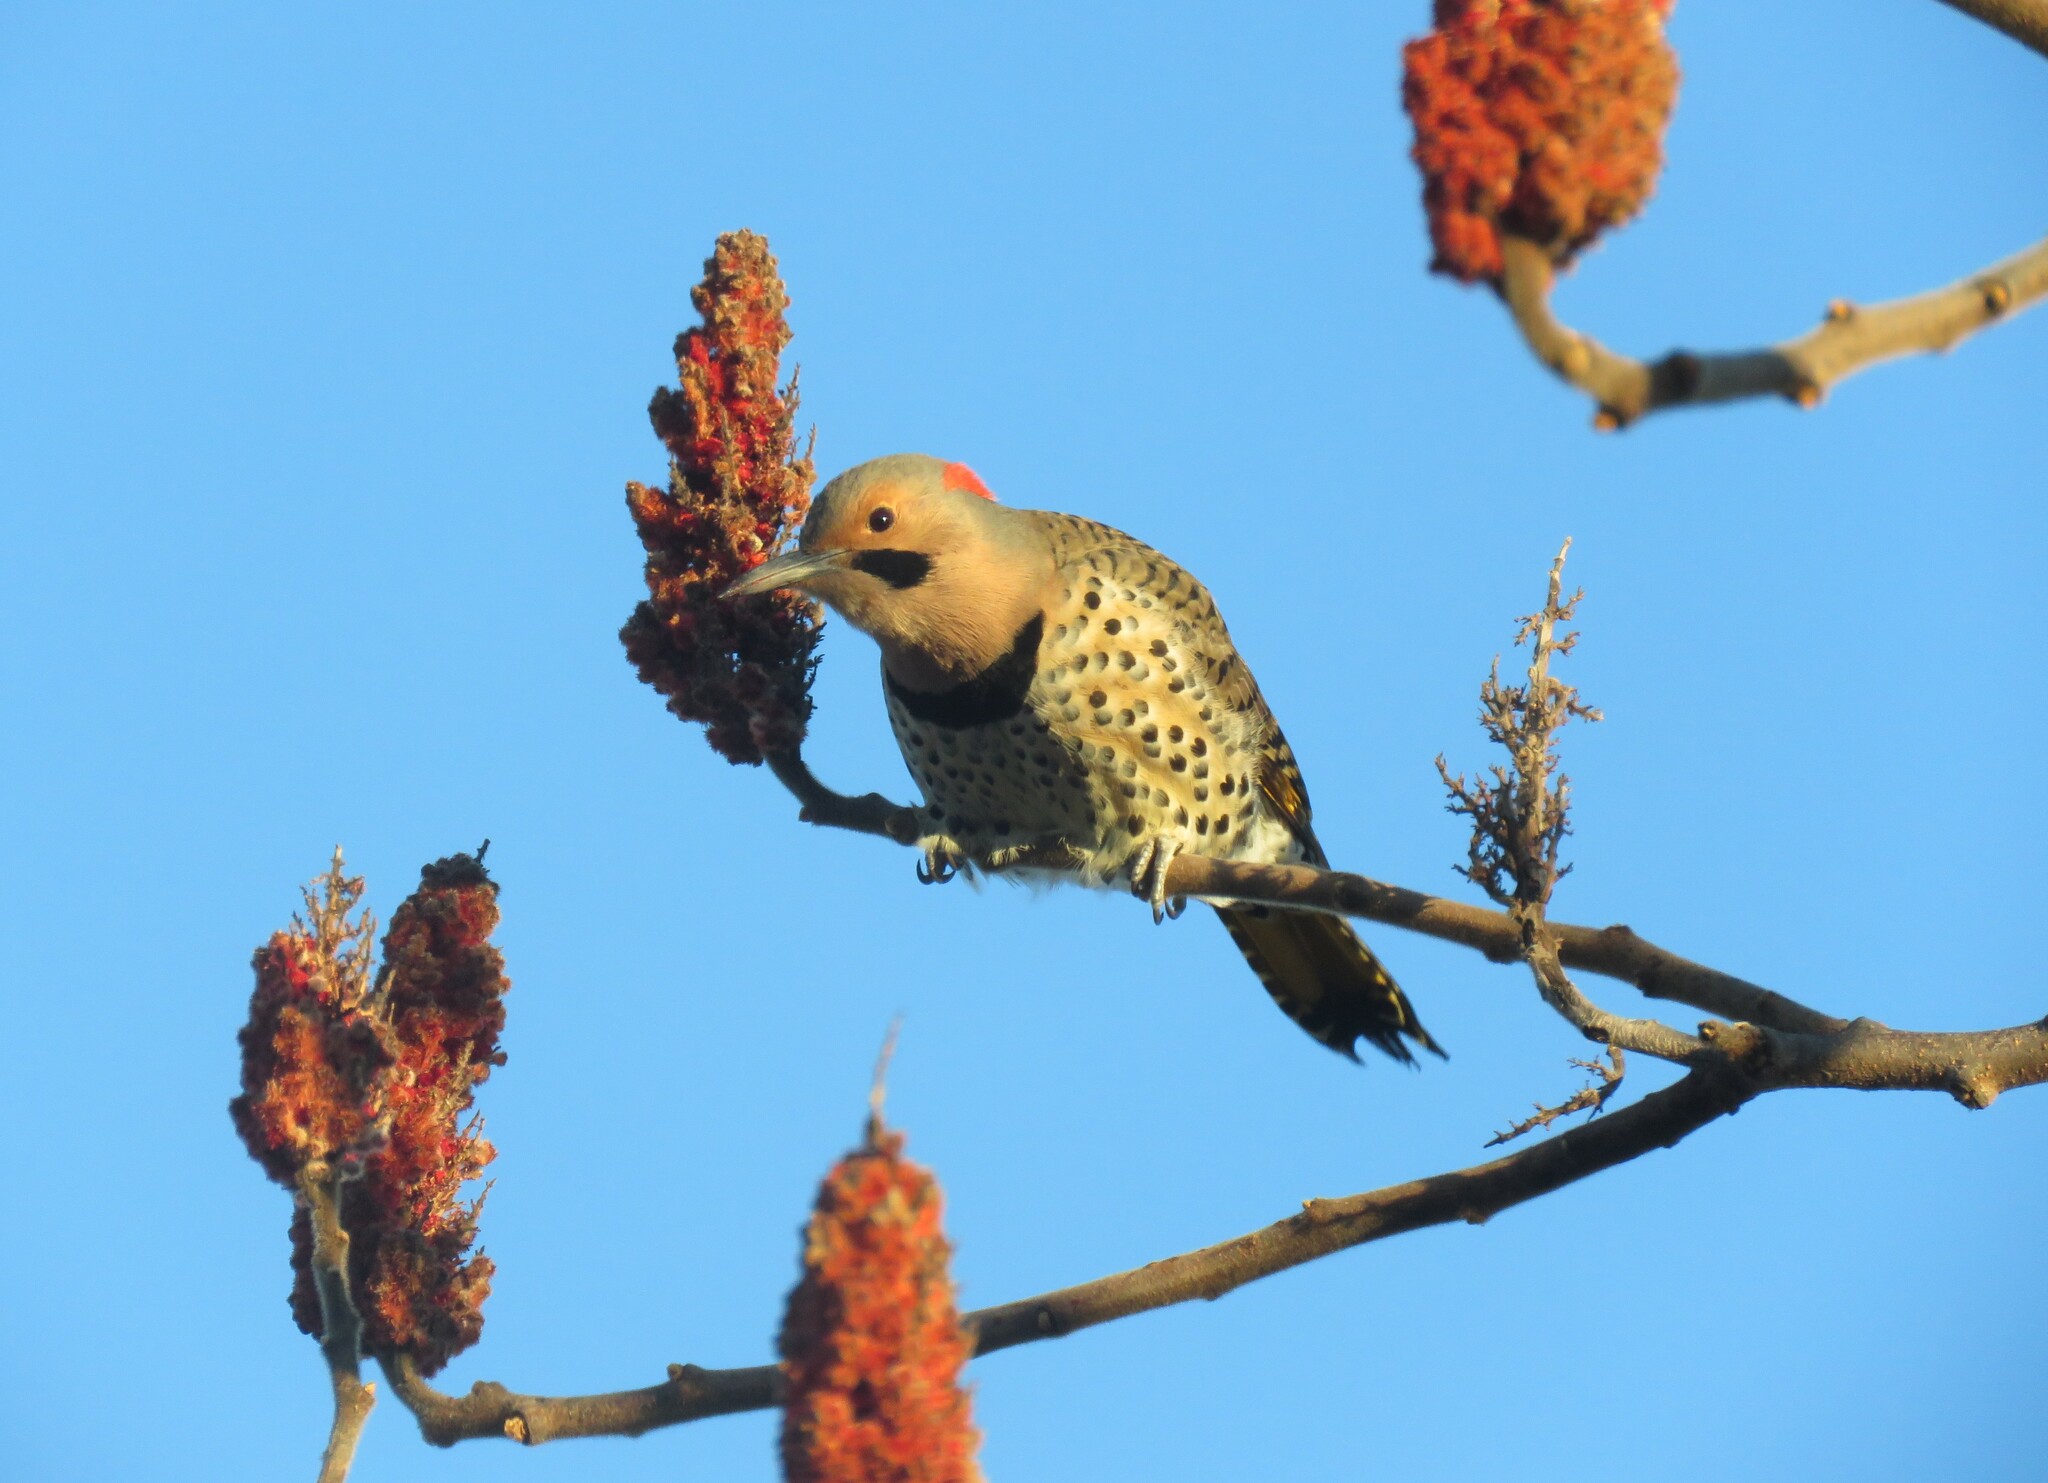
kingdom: Animalia
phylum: Chordata
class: Aves
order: Piciformes
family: Picidae
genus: Colaptes
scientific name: Colaptes auratus
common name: Northern flicker
